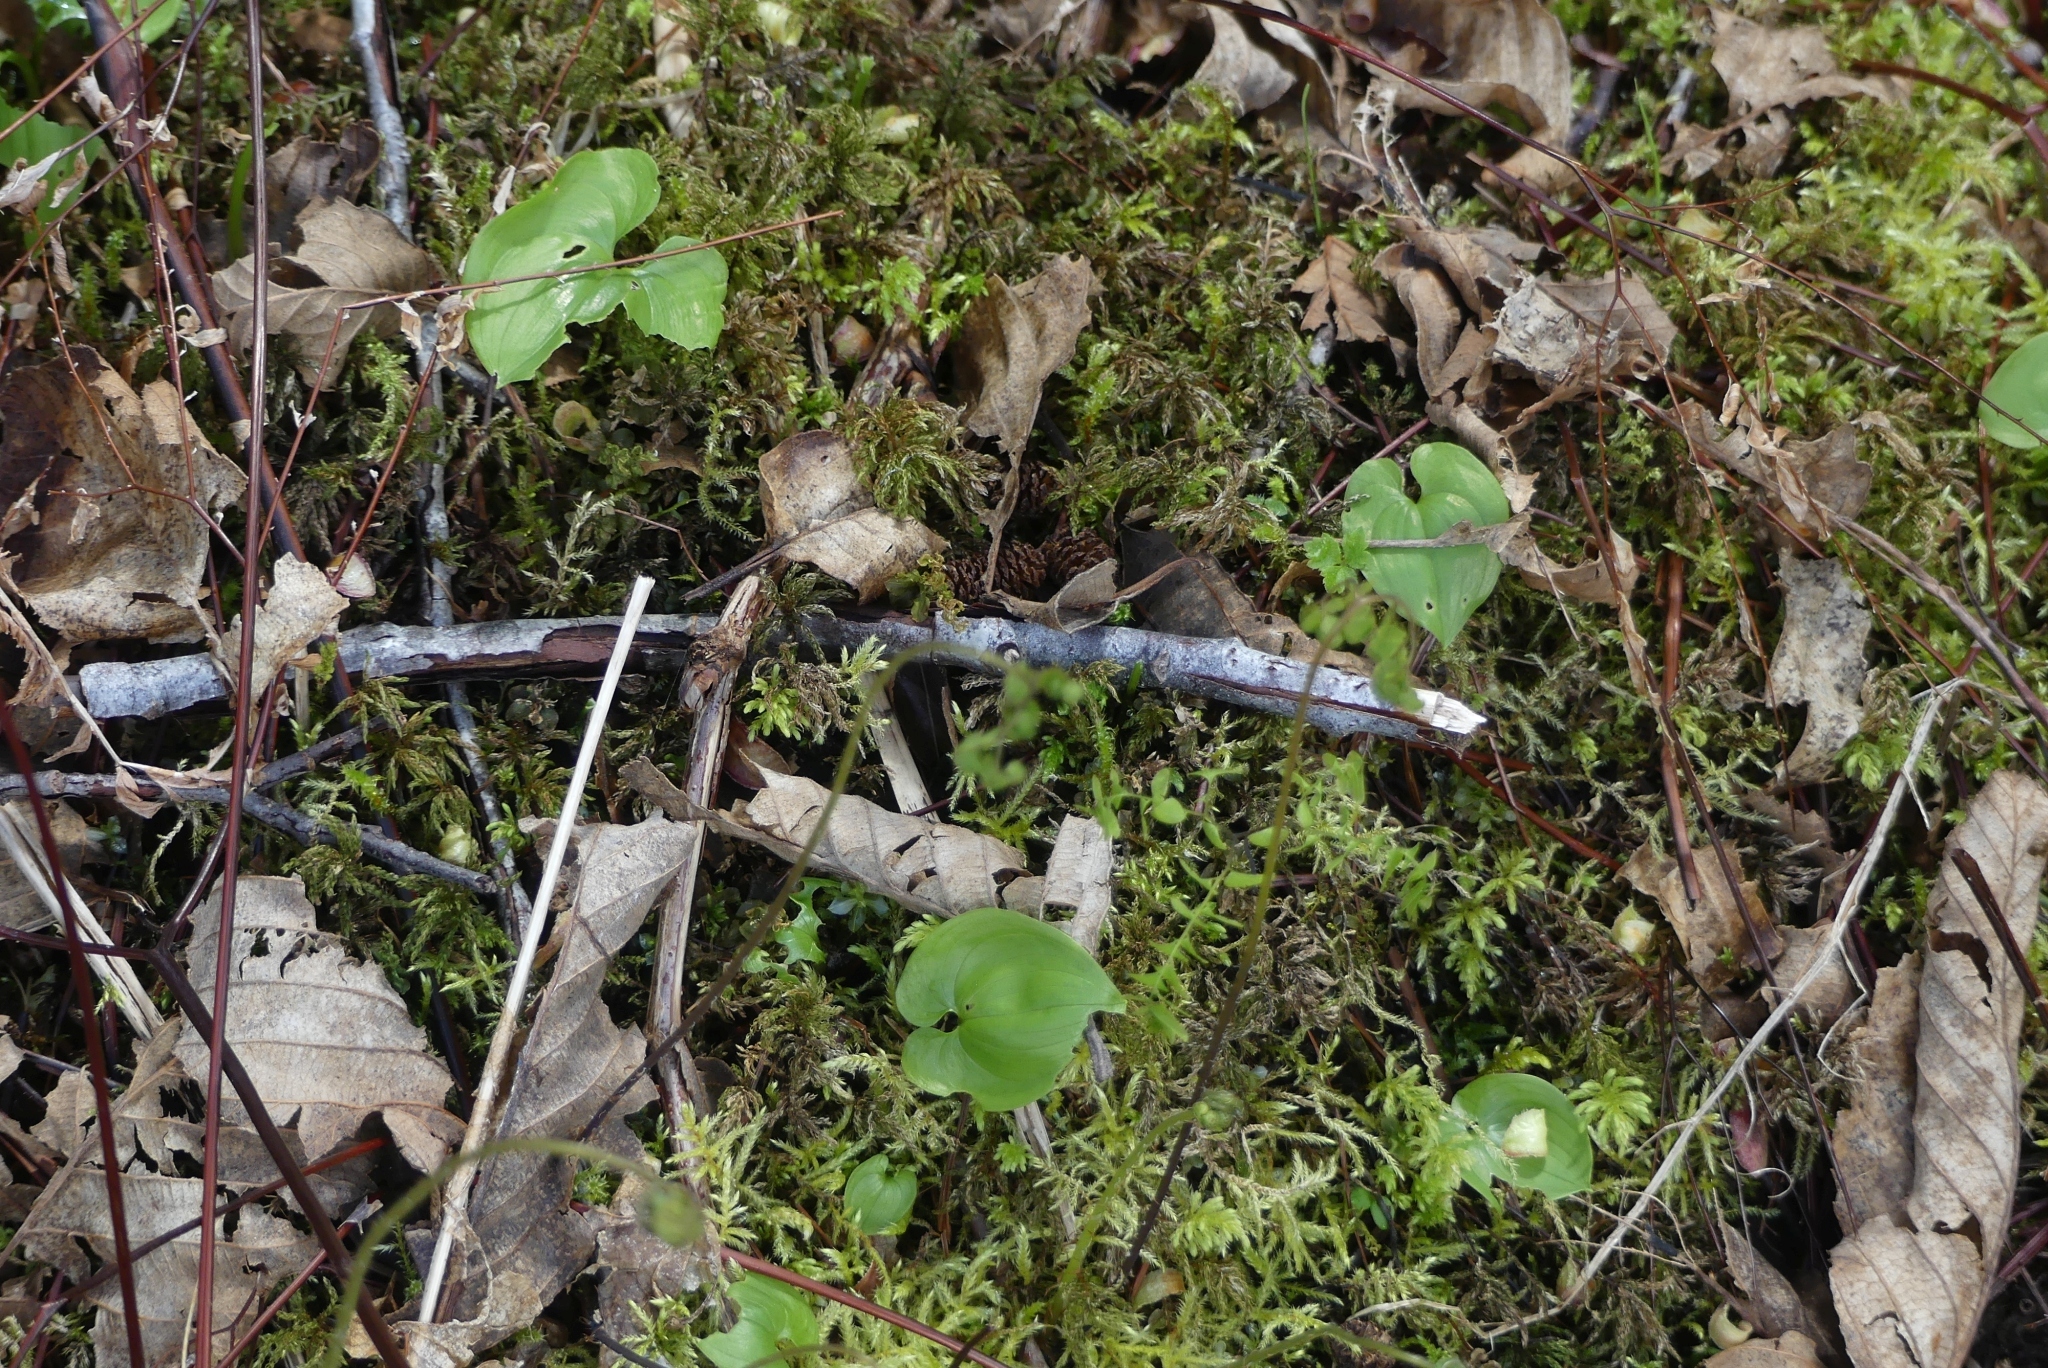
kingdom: Plantae
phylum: Tracheophyta
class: Liliopsida
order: Asparagales
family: Asparagaceae
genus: Maianthemum
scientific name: Maianthemum dilatatum
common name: False lily-of-the-valley
